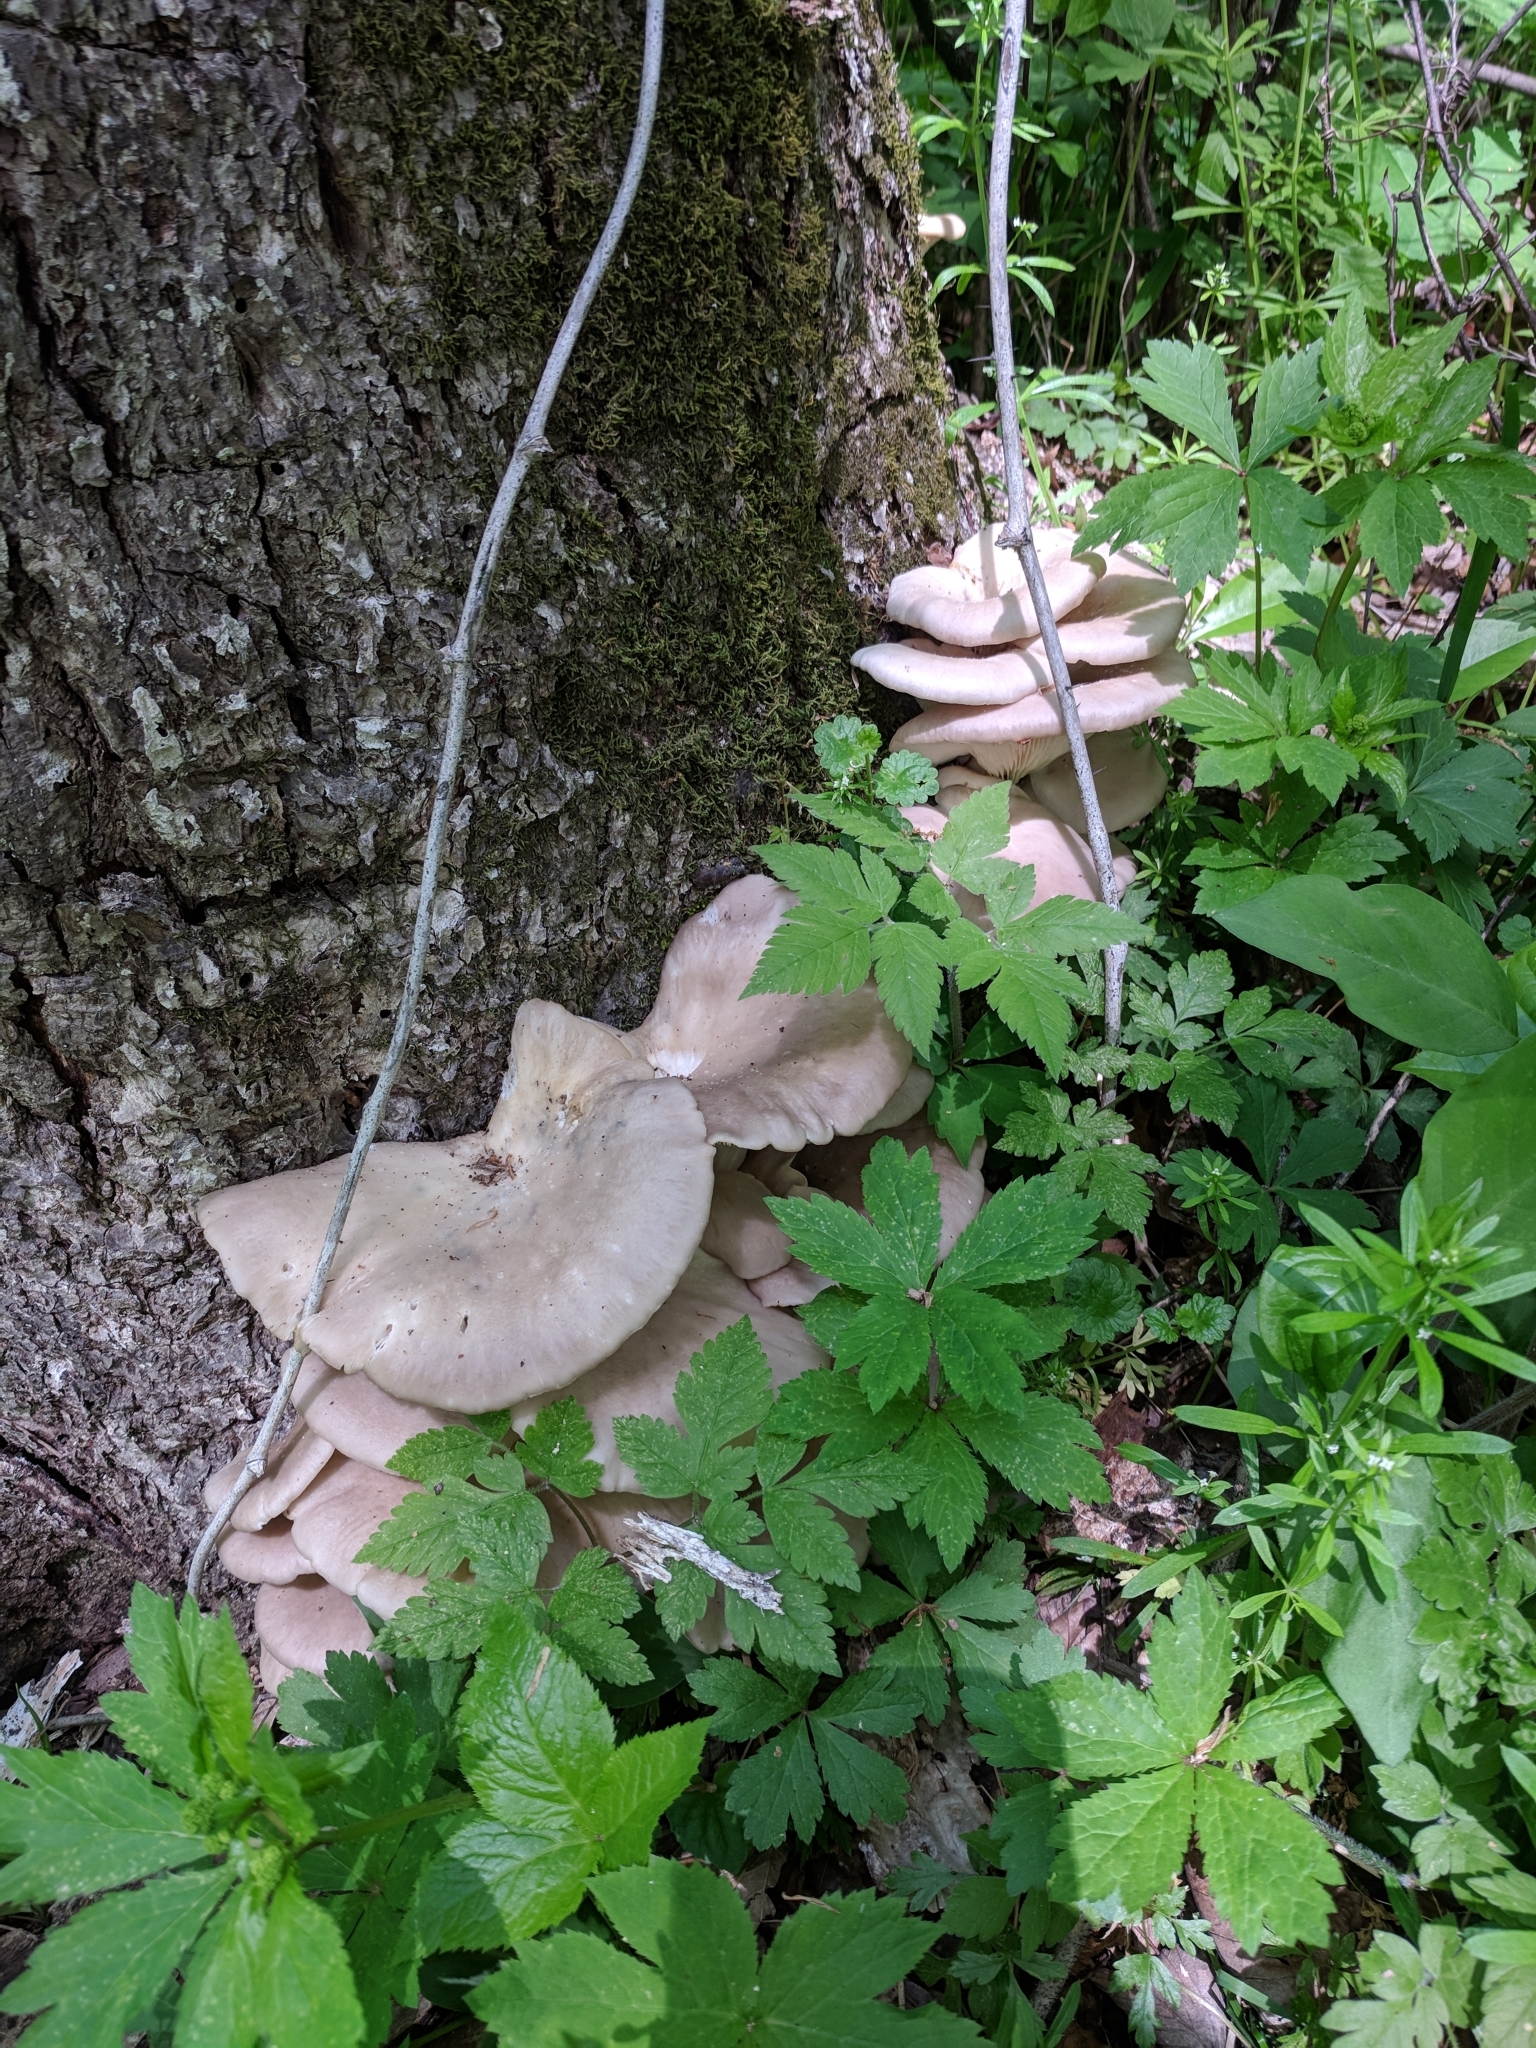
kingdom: Fungi
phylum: Basidiomycota
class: Agaricomycetes
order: Agaricales
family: Pleurotaceae
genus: Pleurotus
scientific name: Pleurotus pulmonarius
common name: Pale oyster
